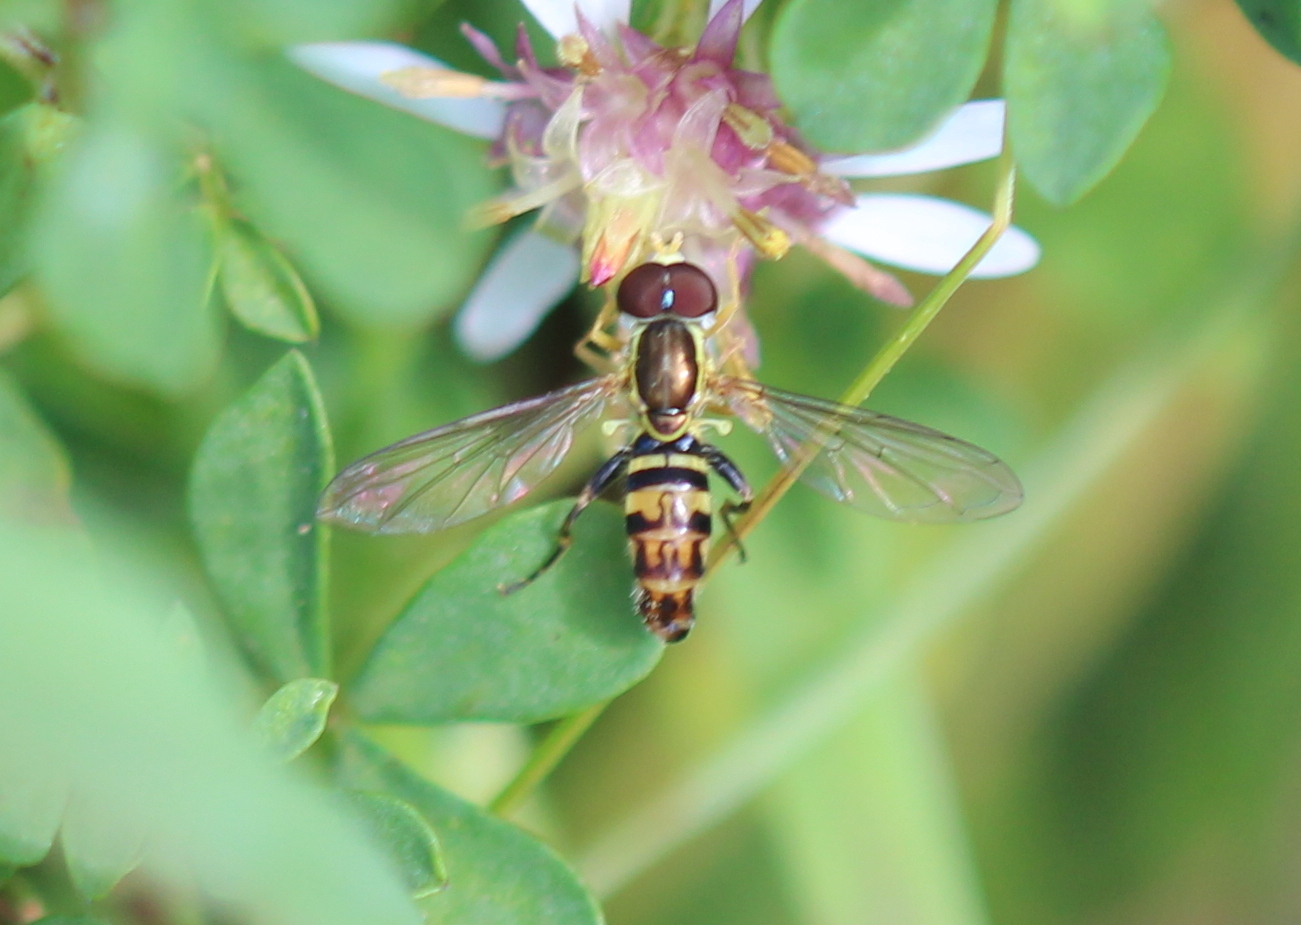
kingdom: Animalia
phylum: Arthropoda
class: Insecta
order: Diptera
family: Syrphidae
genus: Toxomerus
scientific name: Toxomerus geminatus
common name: Eastern calligrapher
